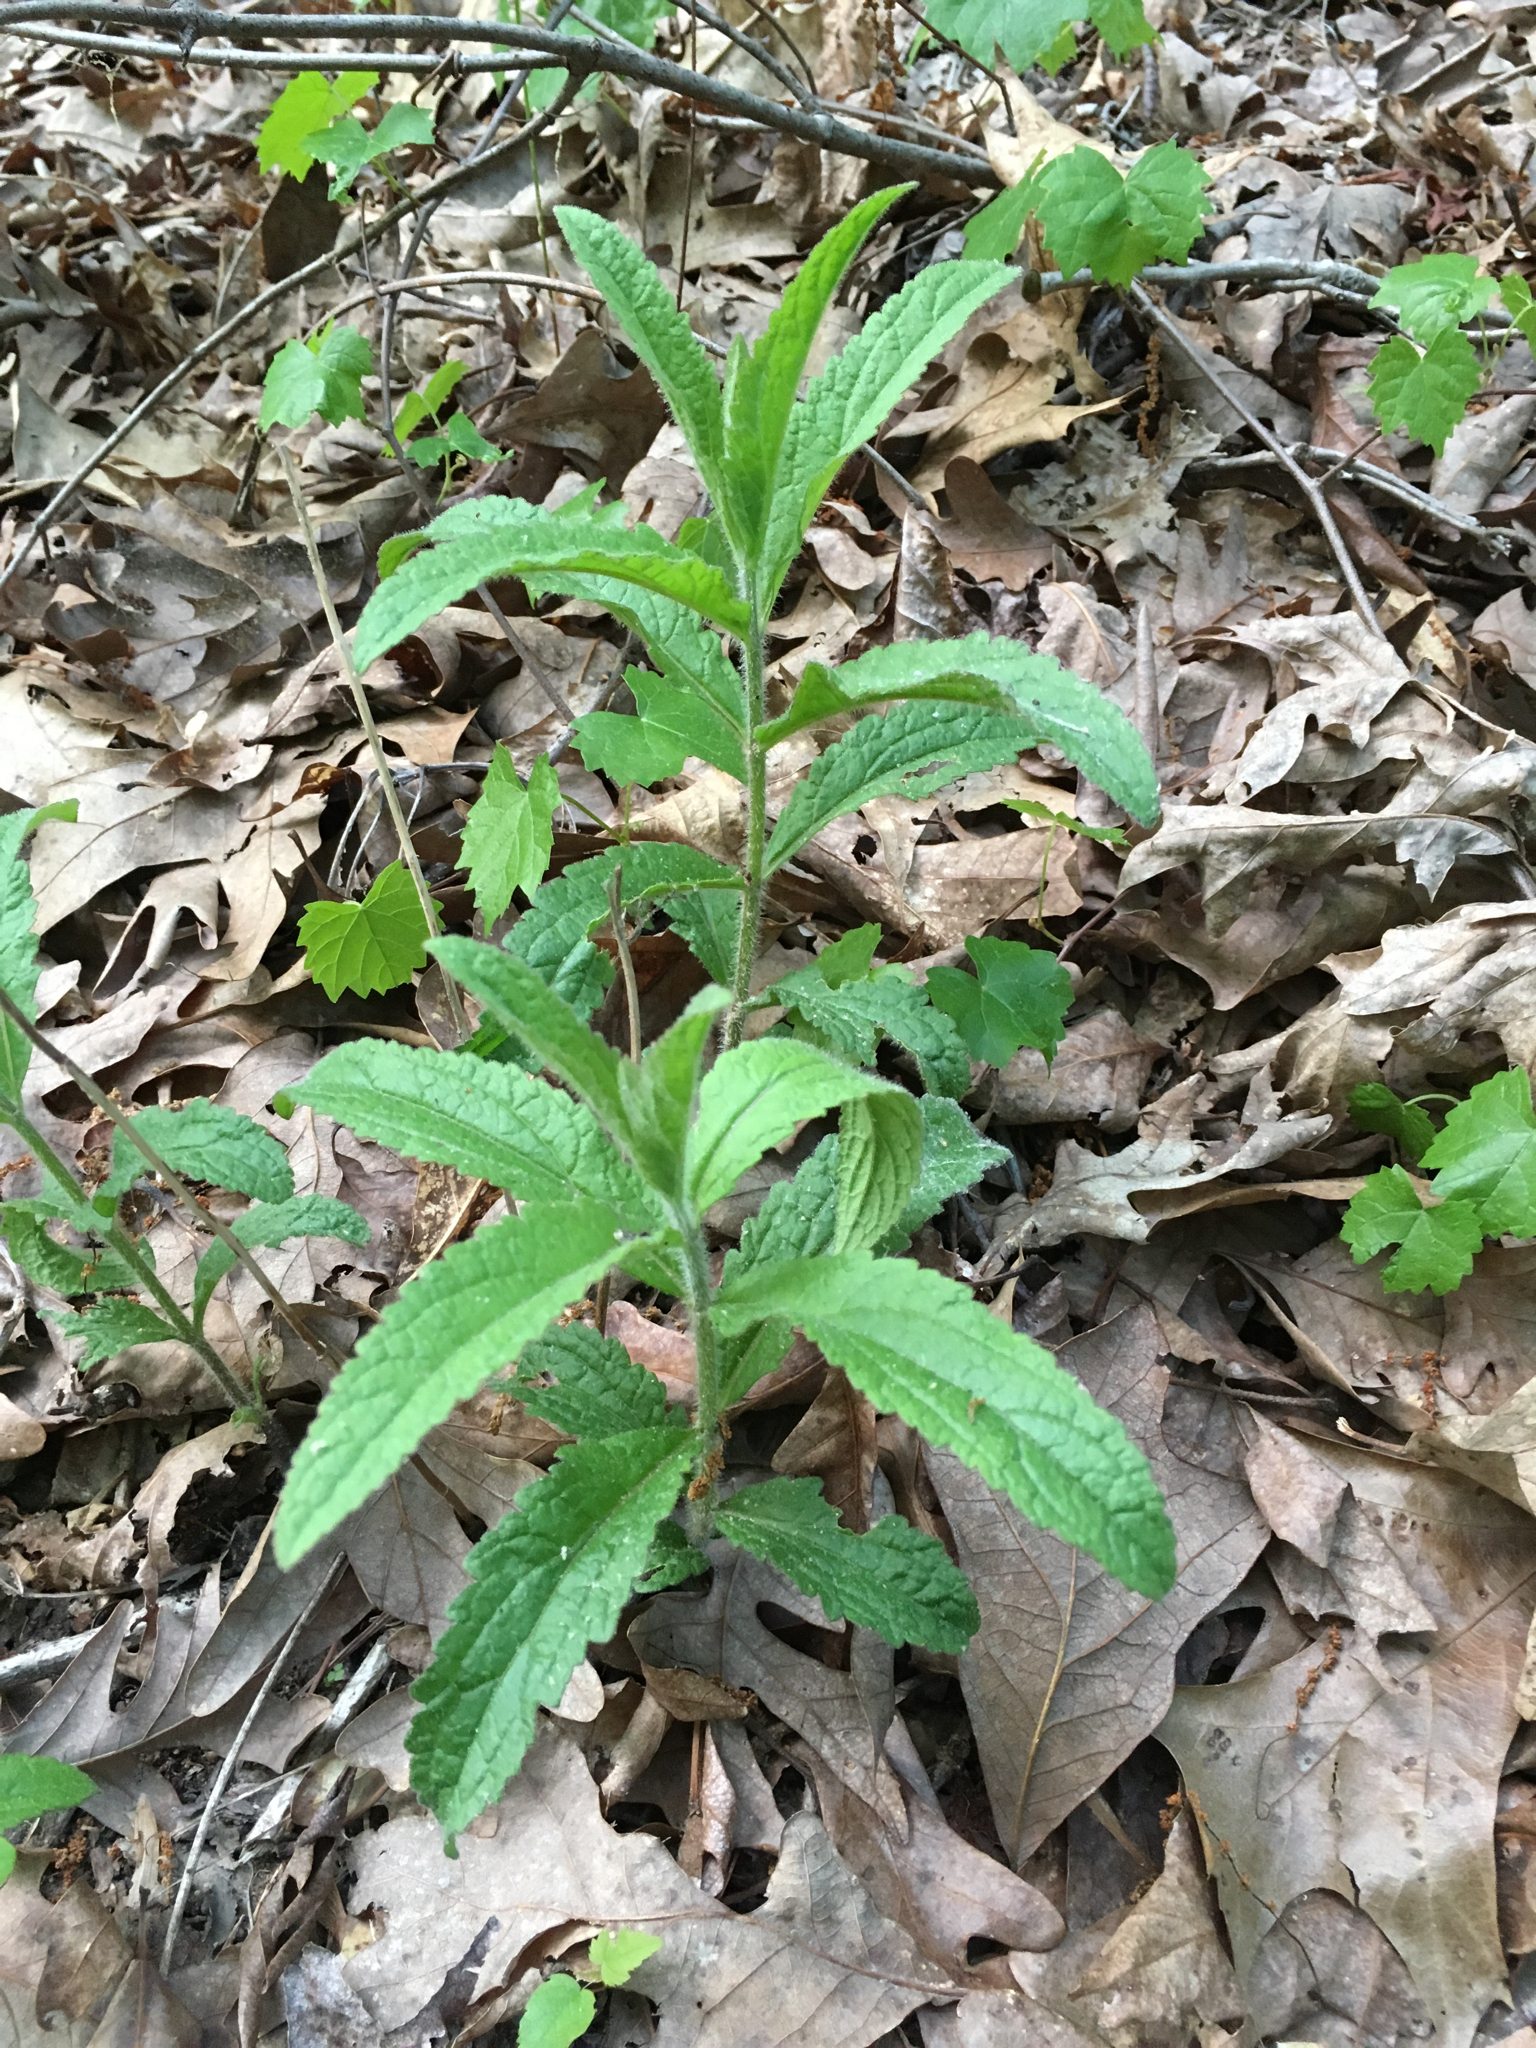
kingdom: Plantae
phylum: Tracheophyta
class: Magnoliopsida
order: Asterales
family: Asteraceae
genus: Eupatorium
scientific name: Eupatorium album
